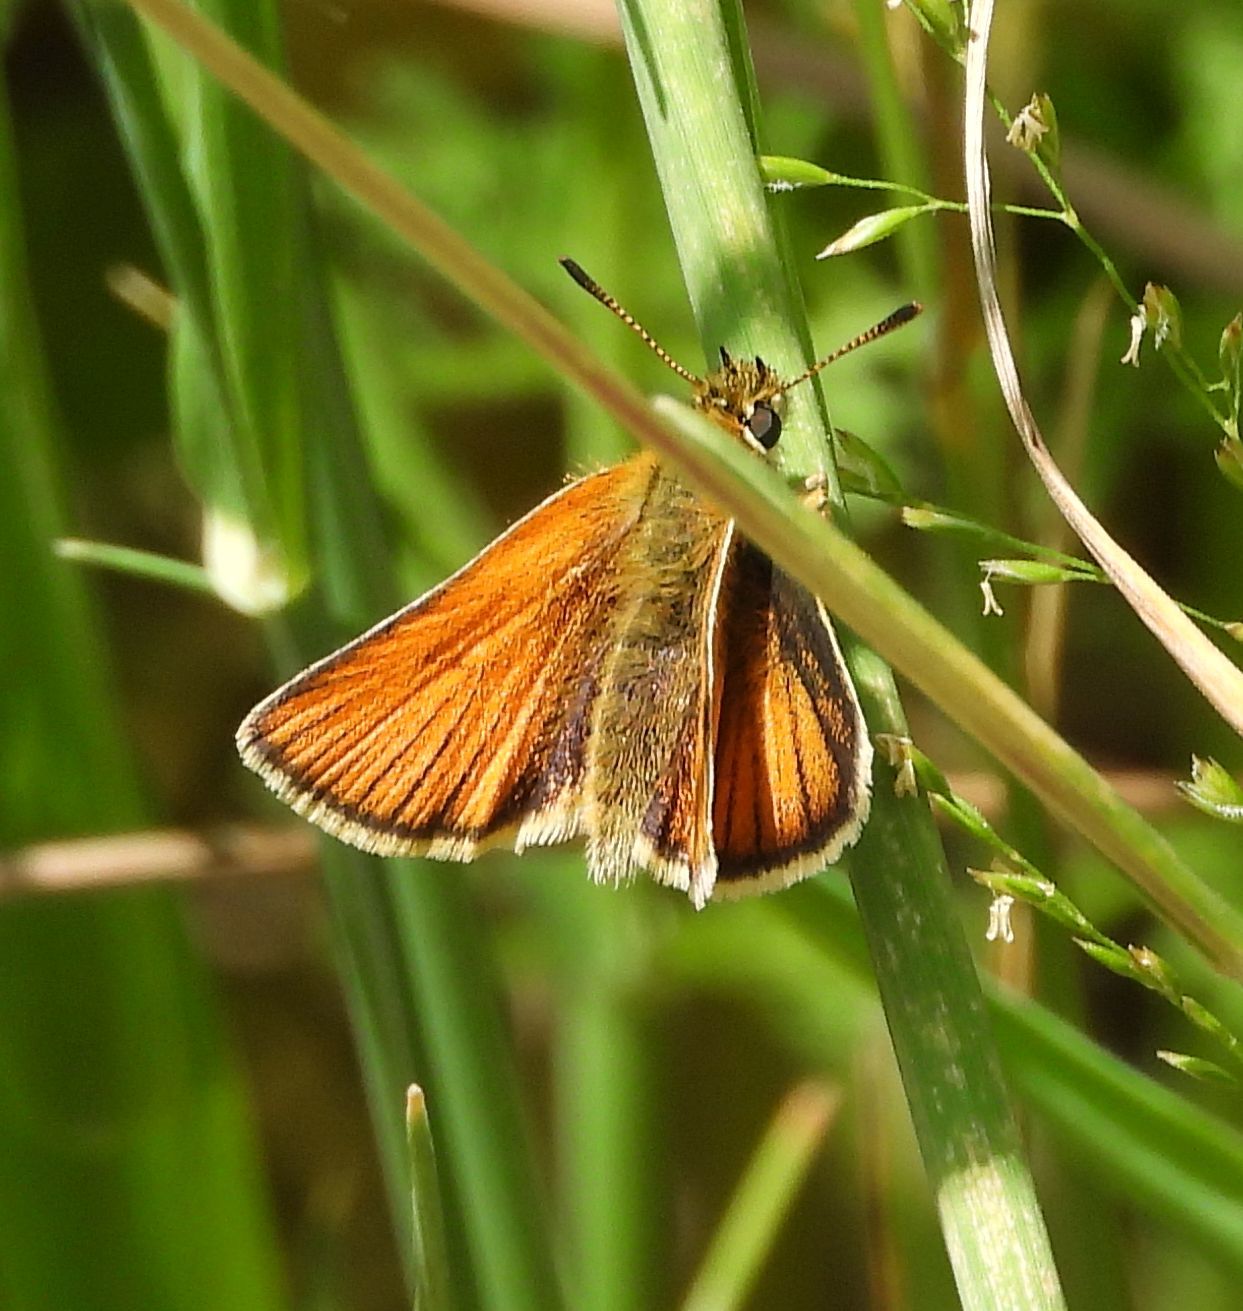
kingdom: Animalia
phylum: Arthropoda
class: Insecta
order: Lepidoptera
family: Hesperiidae
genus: Thymelicus
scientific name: Thymelicus lineola
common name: Essex skipper
